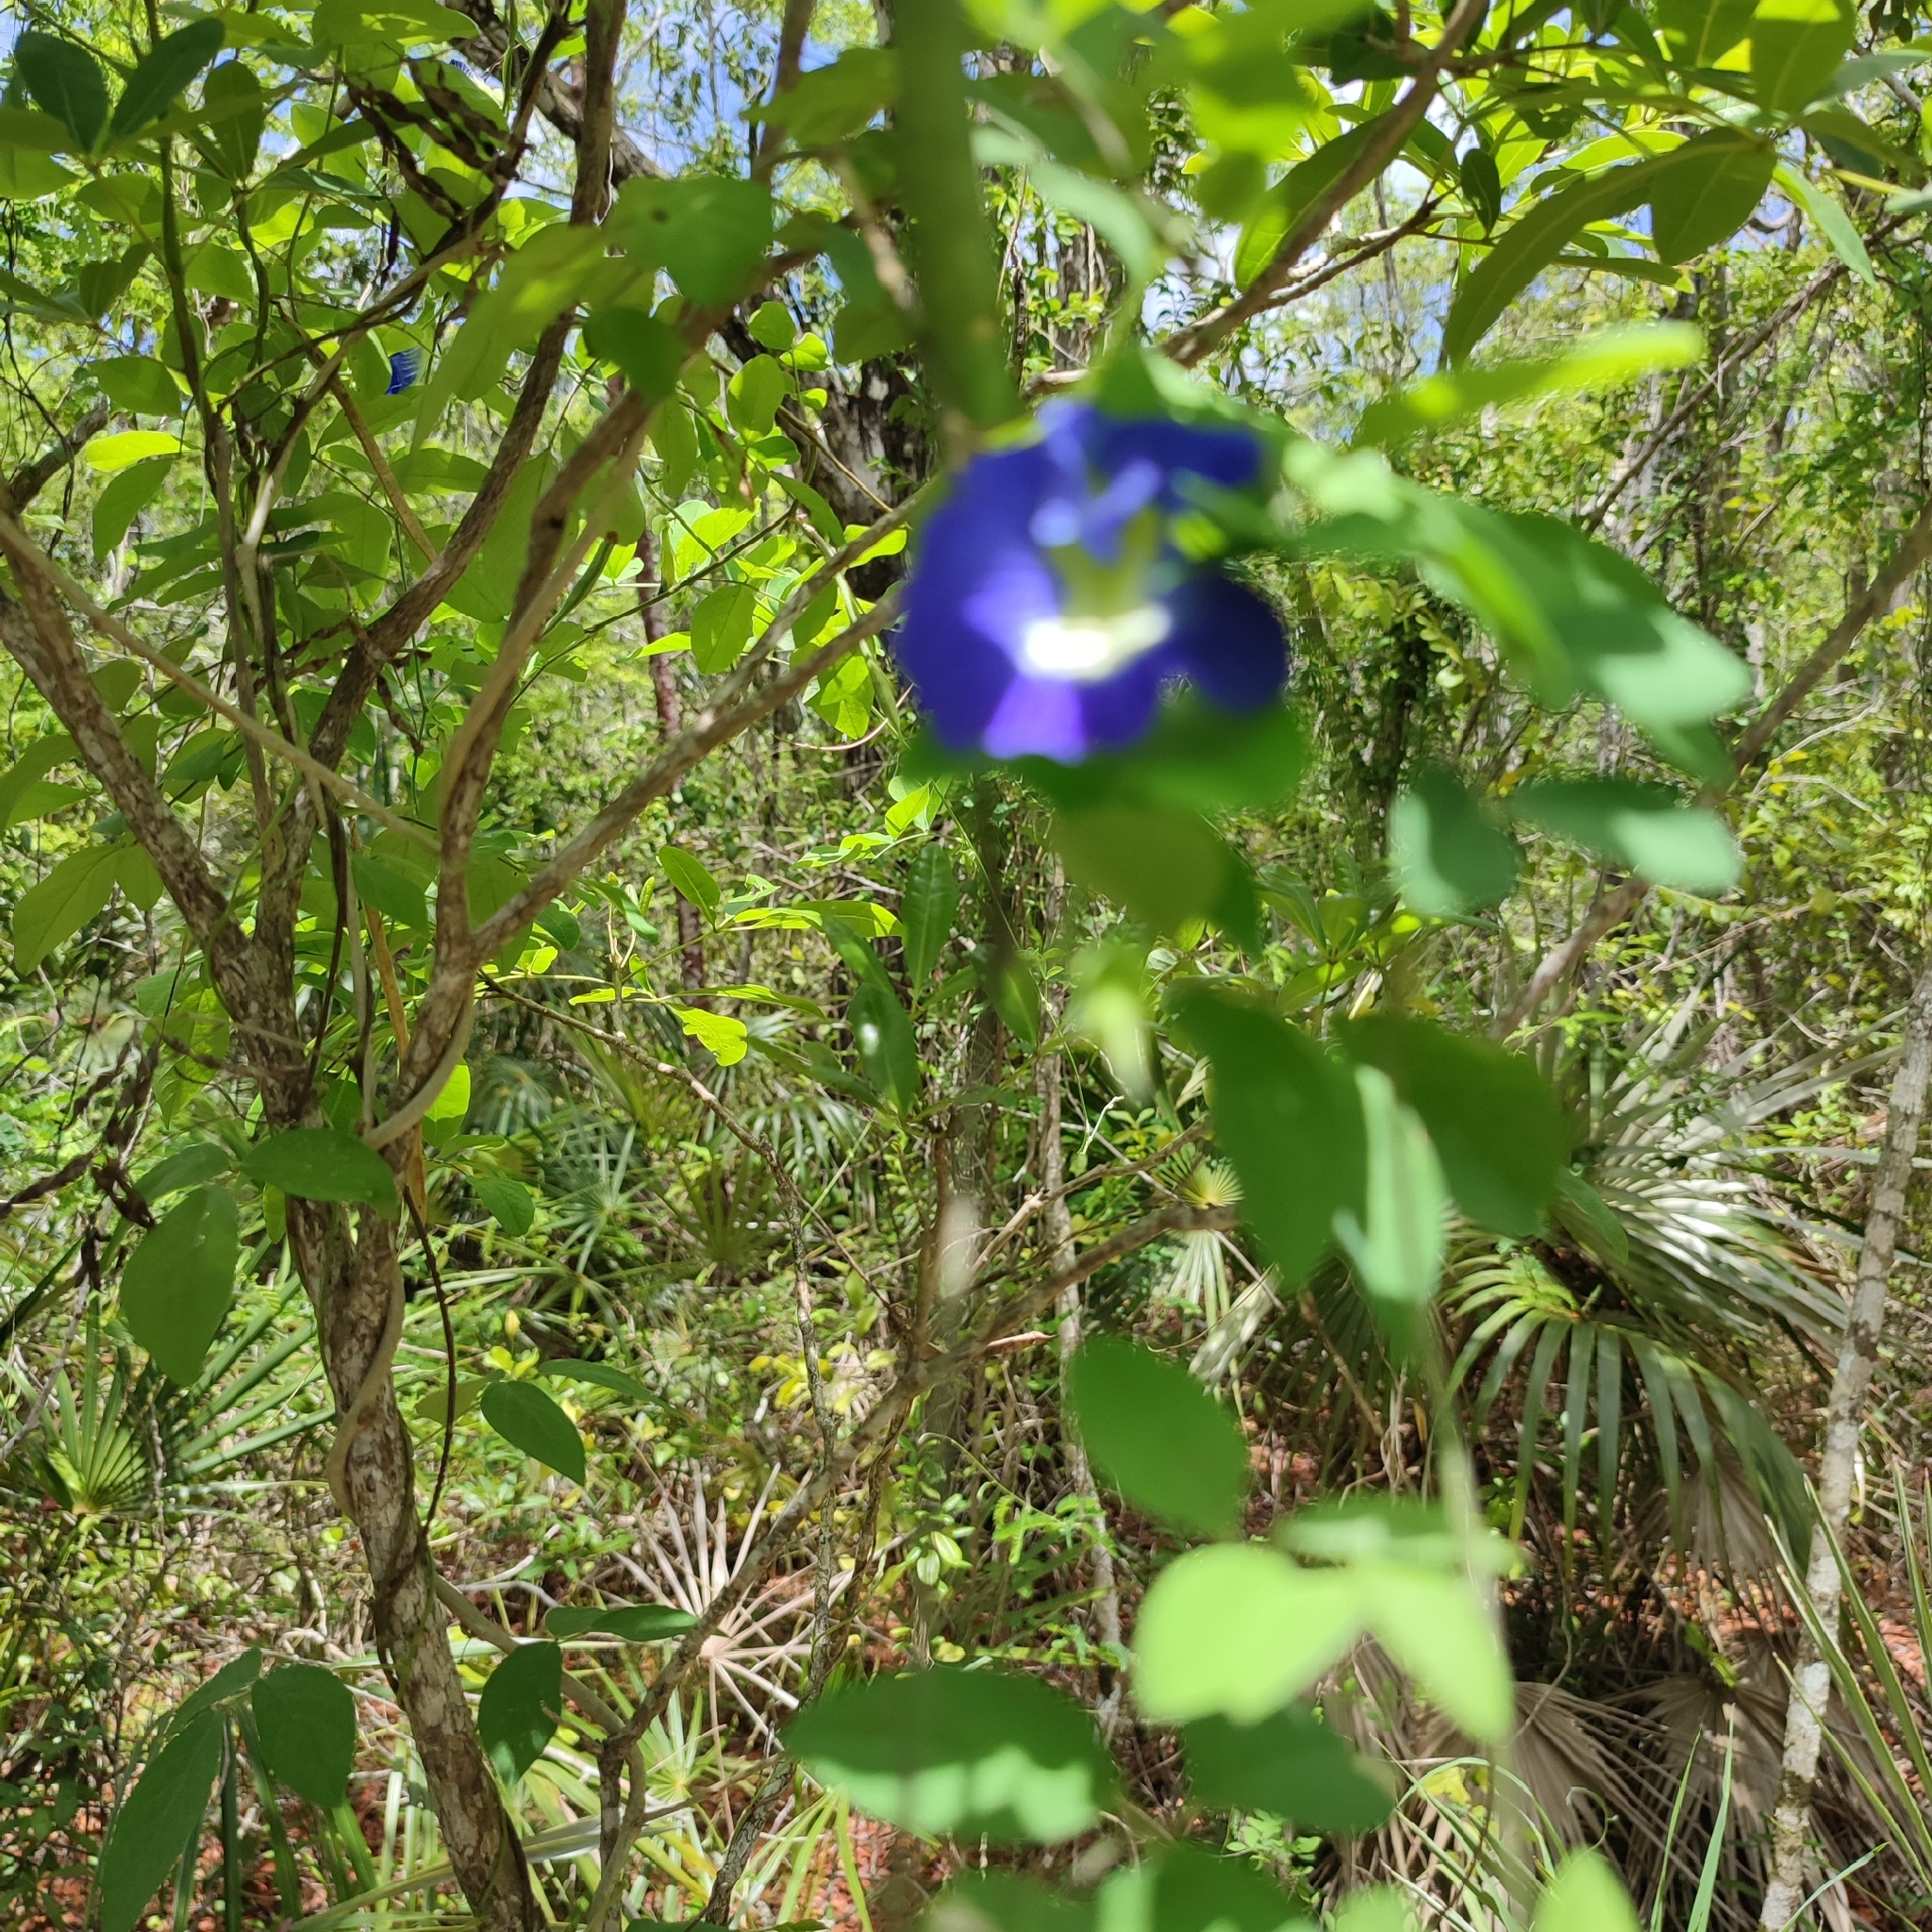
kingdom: Plantae
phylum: Tracheophyta
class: Magnoliopsida
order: Fabales
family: Fabaceae
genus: Clitoria
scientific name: Clitoria ternatea
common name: Asian pigeonwings
